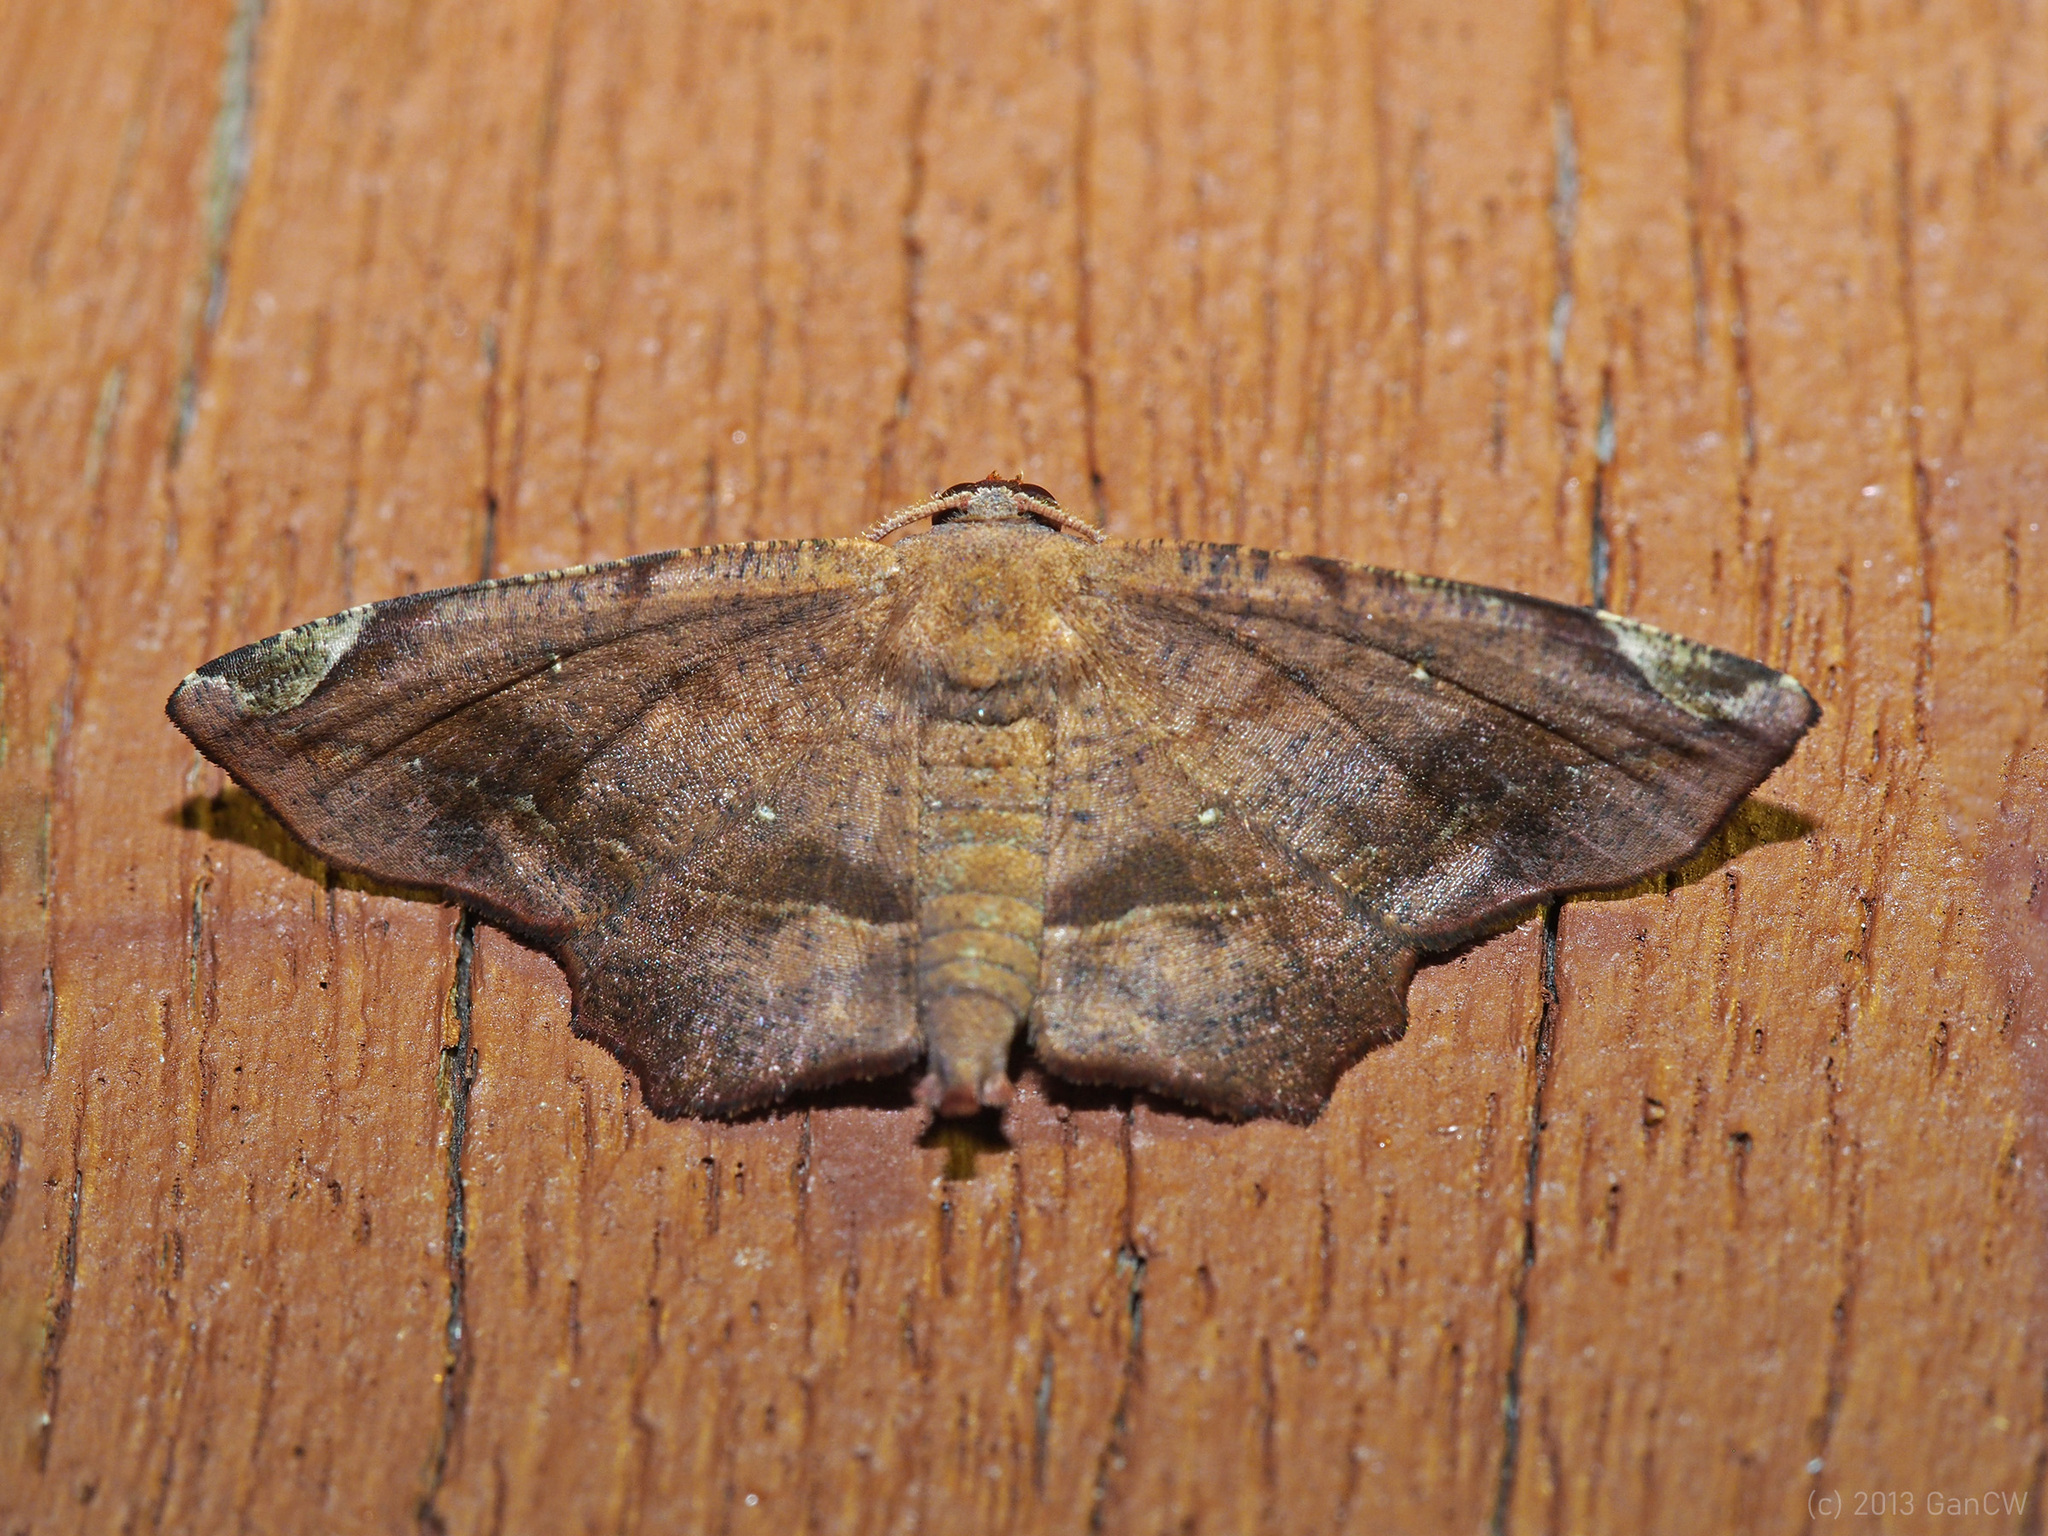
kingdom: Animalia
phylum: Arthropoda
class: Insecta
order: Lepidoptera
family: Geometridae
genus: Mesaster
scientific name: Mesaster albidiscata
